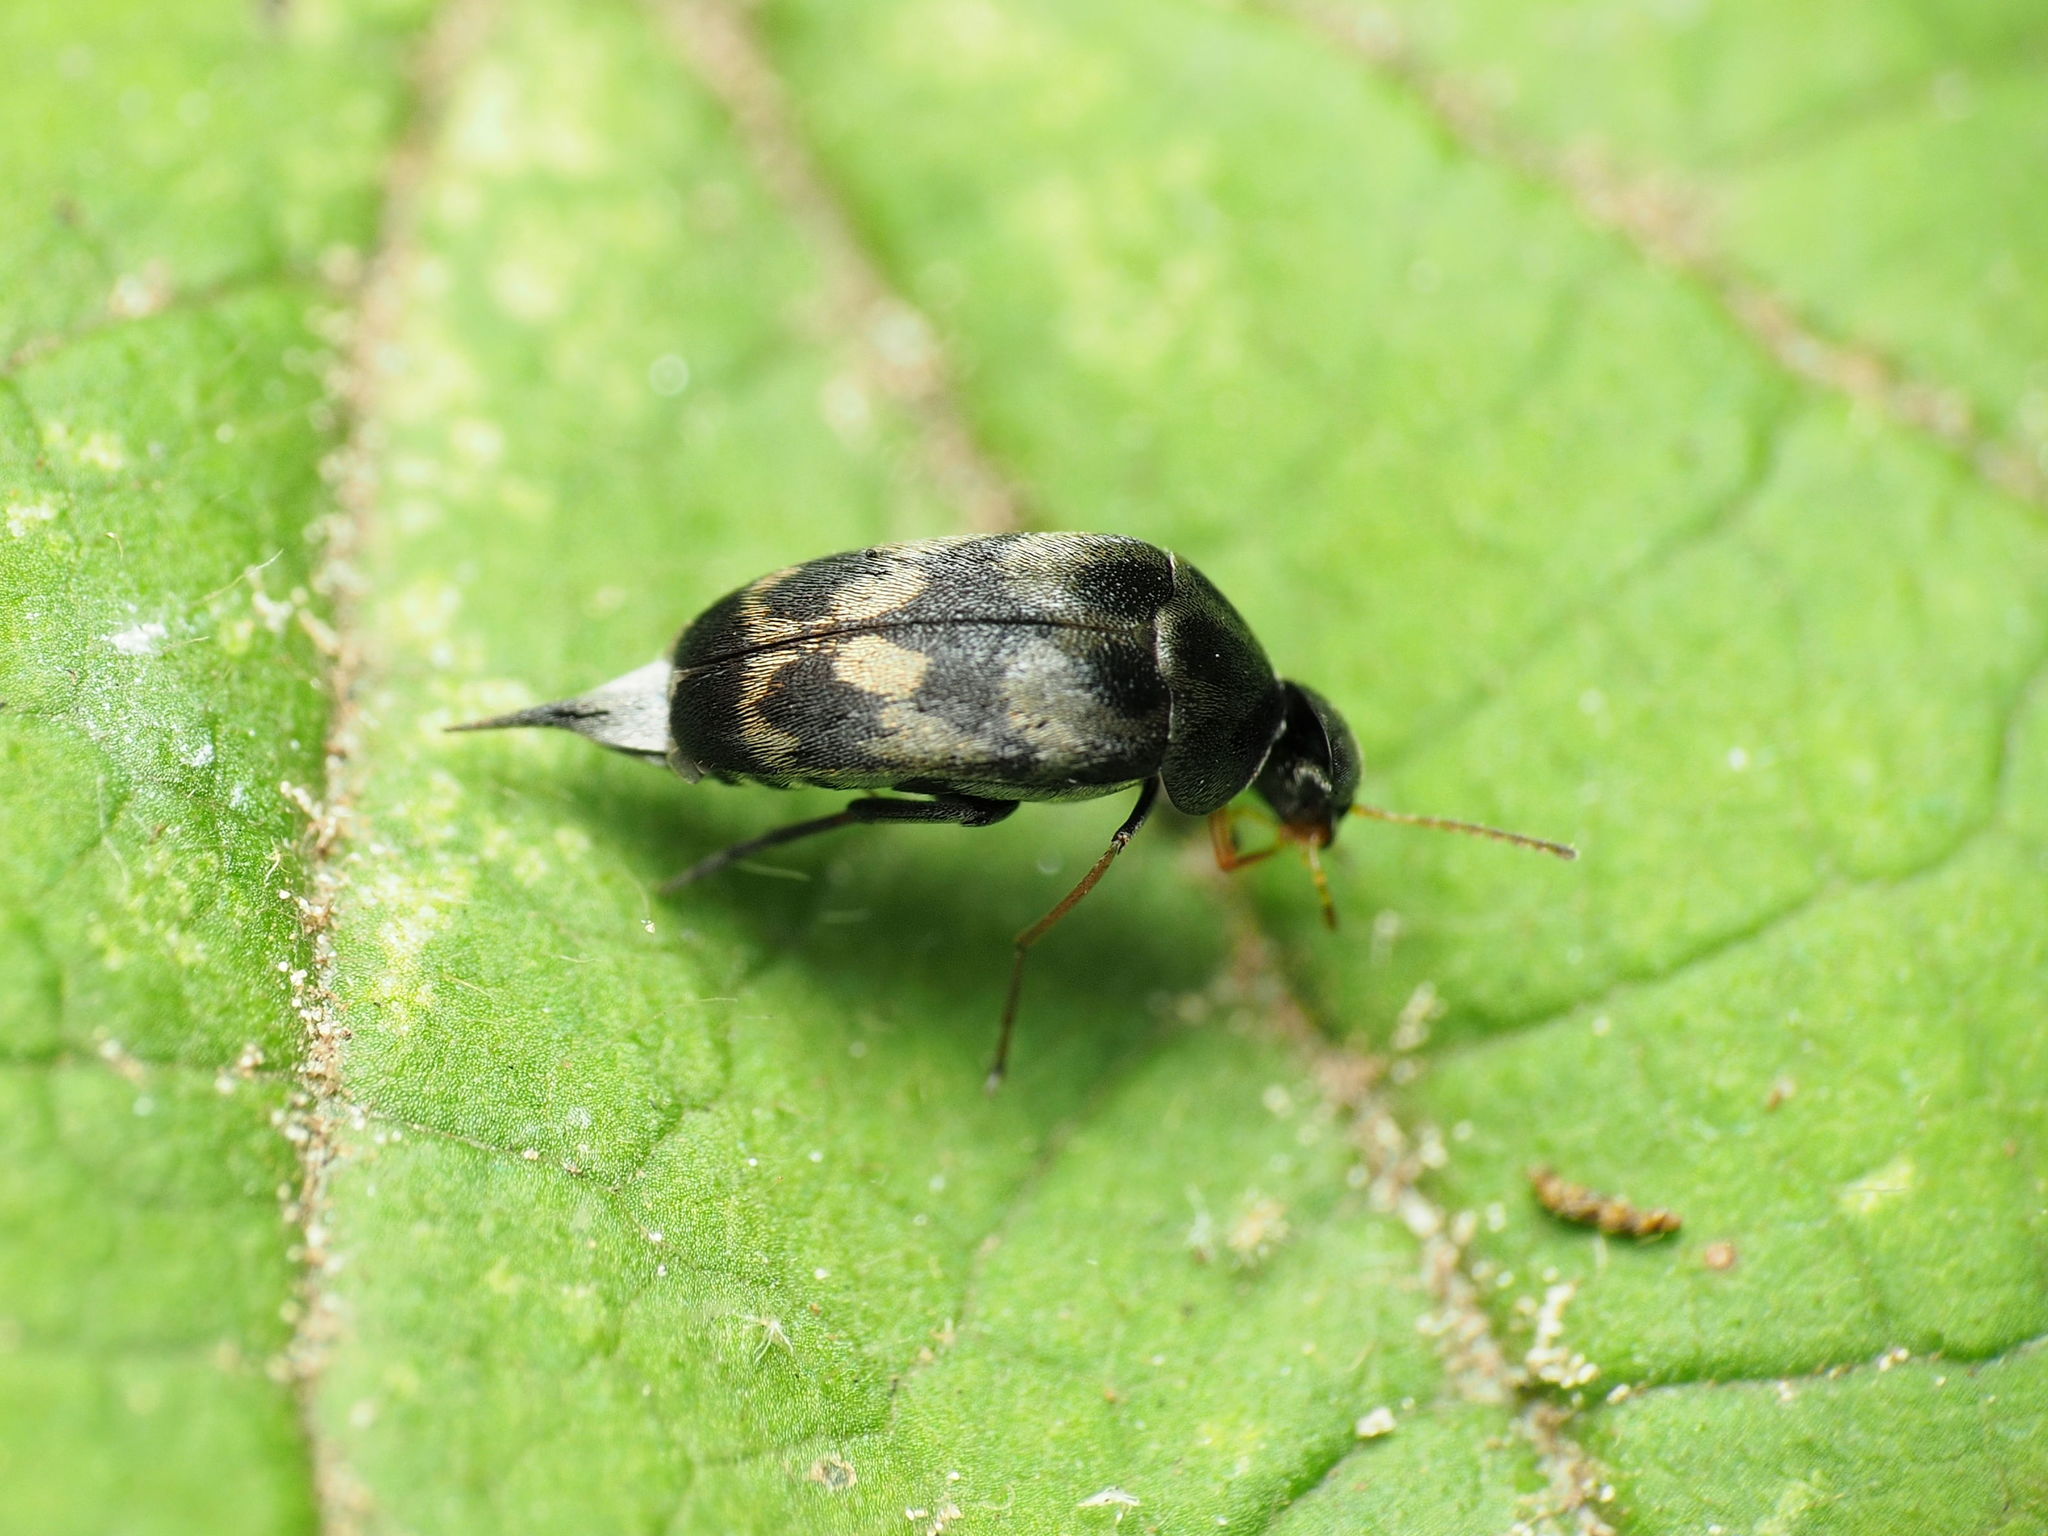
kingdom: Animalia
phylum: Arthropoda
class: Insecta
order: Coleoptera
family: Mordellidae
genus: Paramordellaria
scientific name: Paramordellaria triloba
